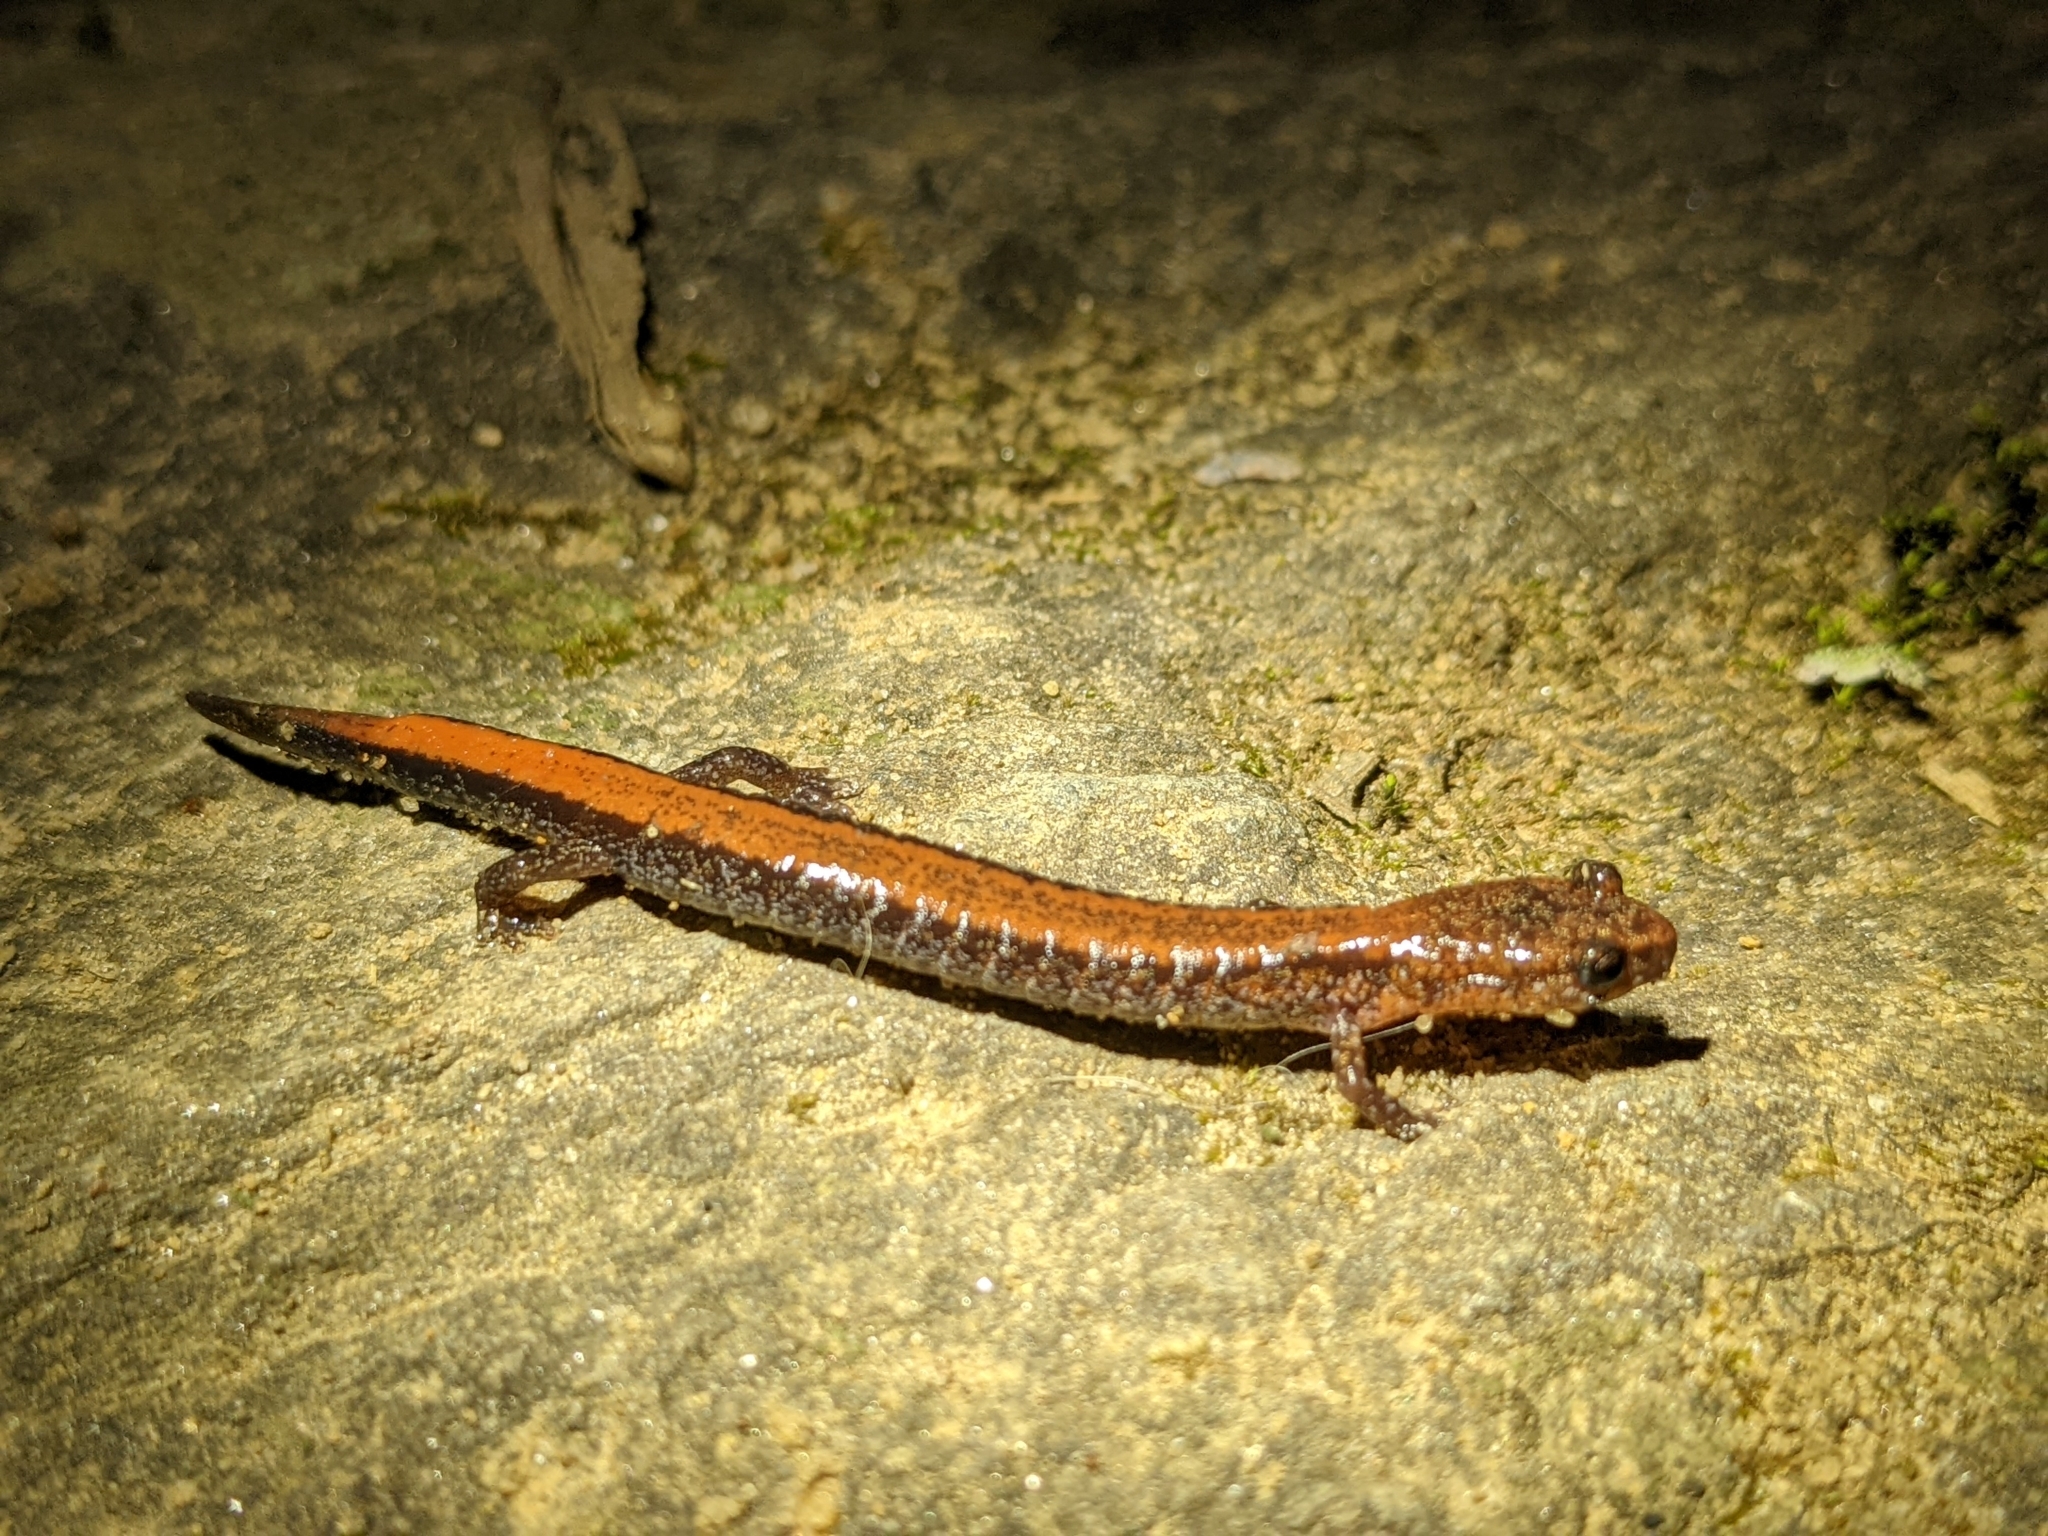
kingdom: Animalia
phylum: Chordata
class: Amphibia
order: Caudata
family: Plethodontidae
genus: Plethodon
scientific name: Plethodon cinereus
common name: Redback salamander
